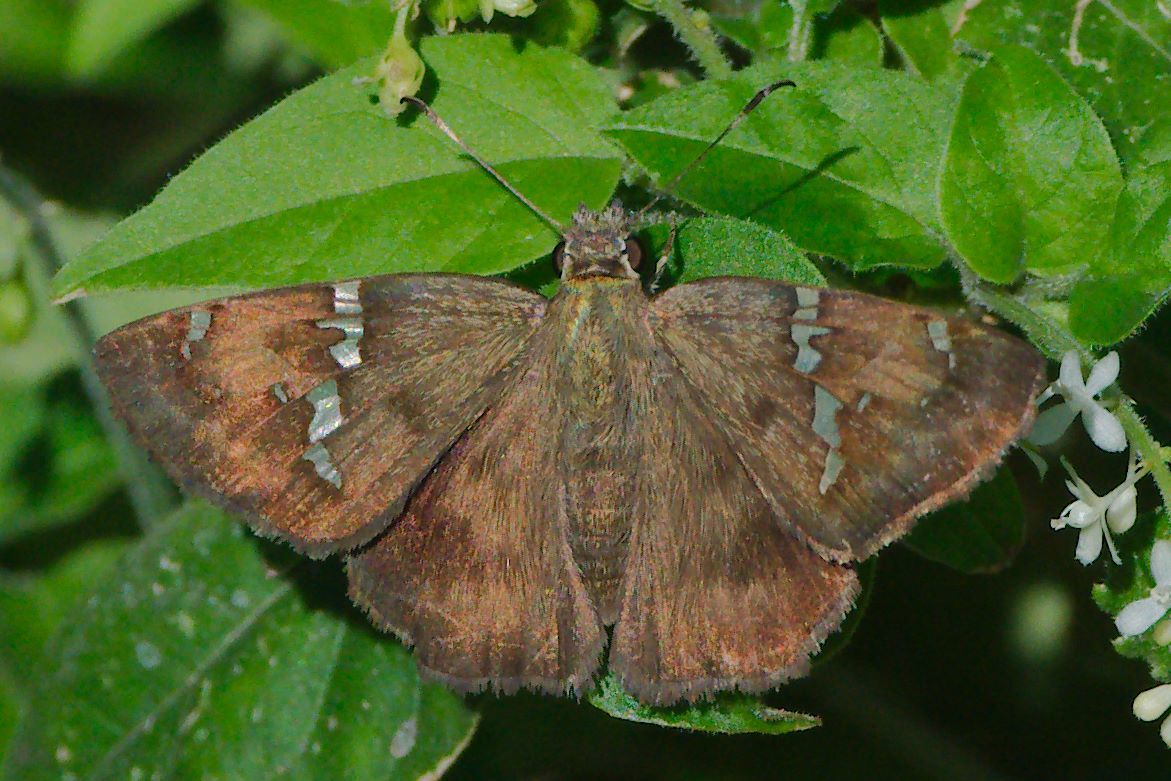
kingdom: Animalia
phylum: Arthropoda
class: Insecta
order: Lepidoptera
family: Hesperiidae
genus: Autochton
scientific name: Autochton potrillo
